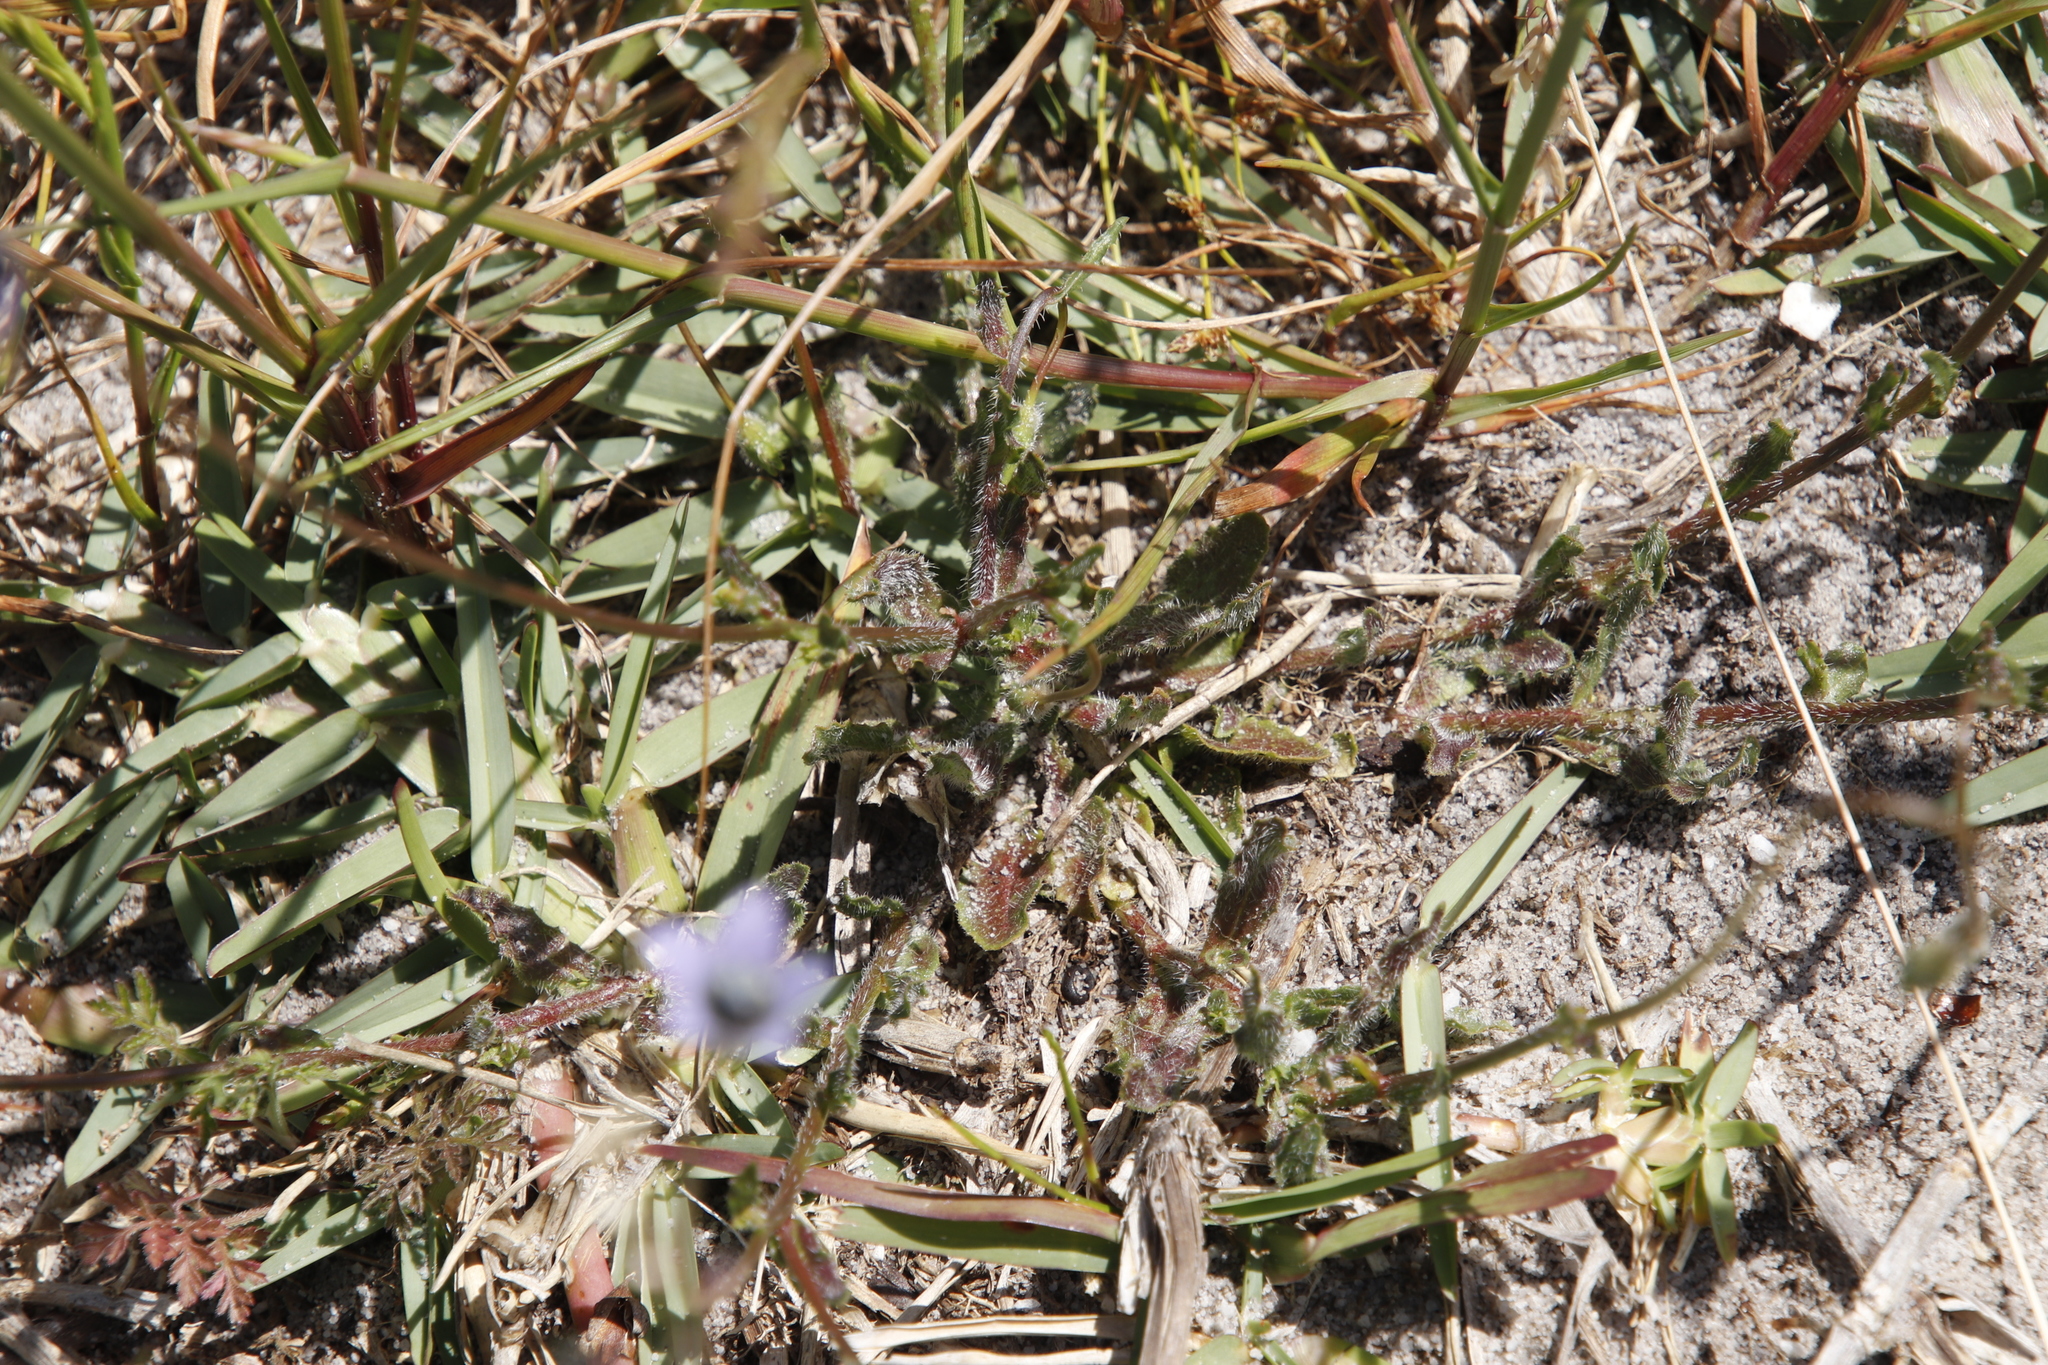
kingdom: Plantae
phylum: Tracheophyta
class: Magnoliopsida
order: Asterales
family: Campanulaceae
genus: Wahlenbergia
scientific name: Wahlenbergia capensis
